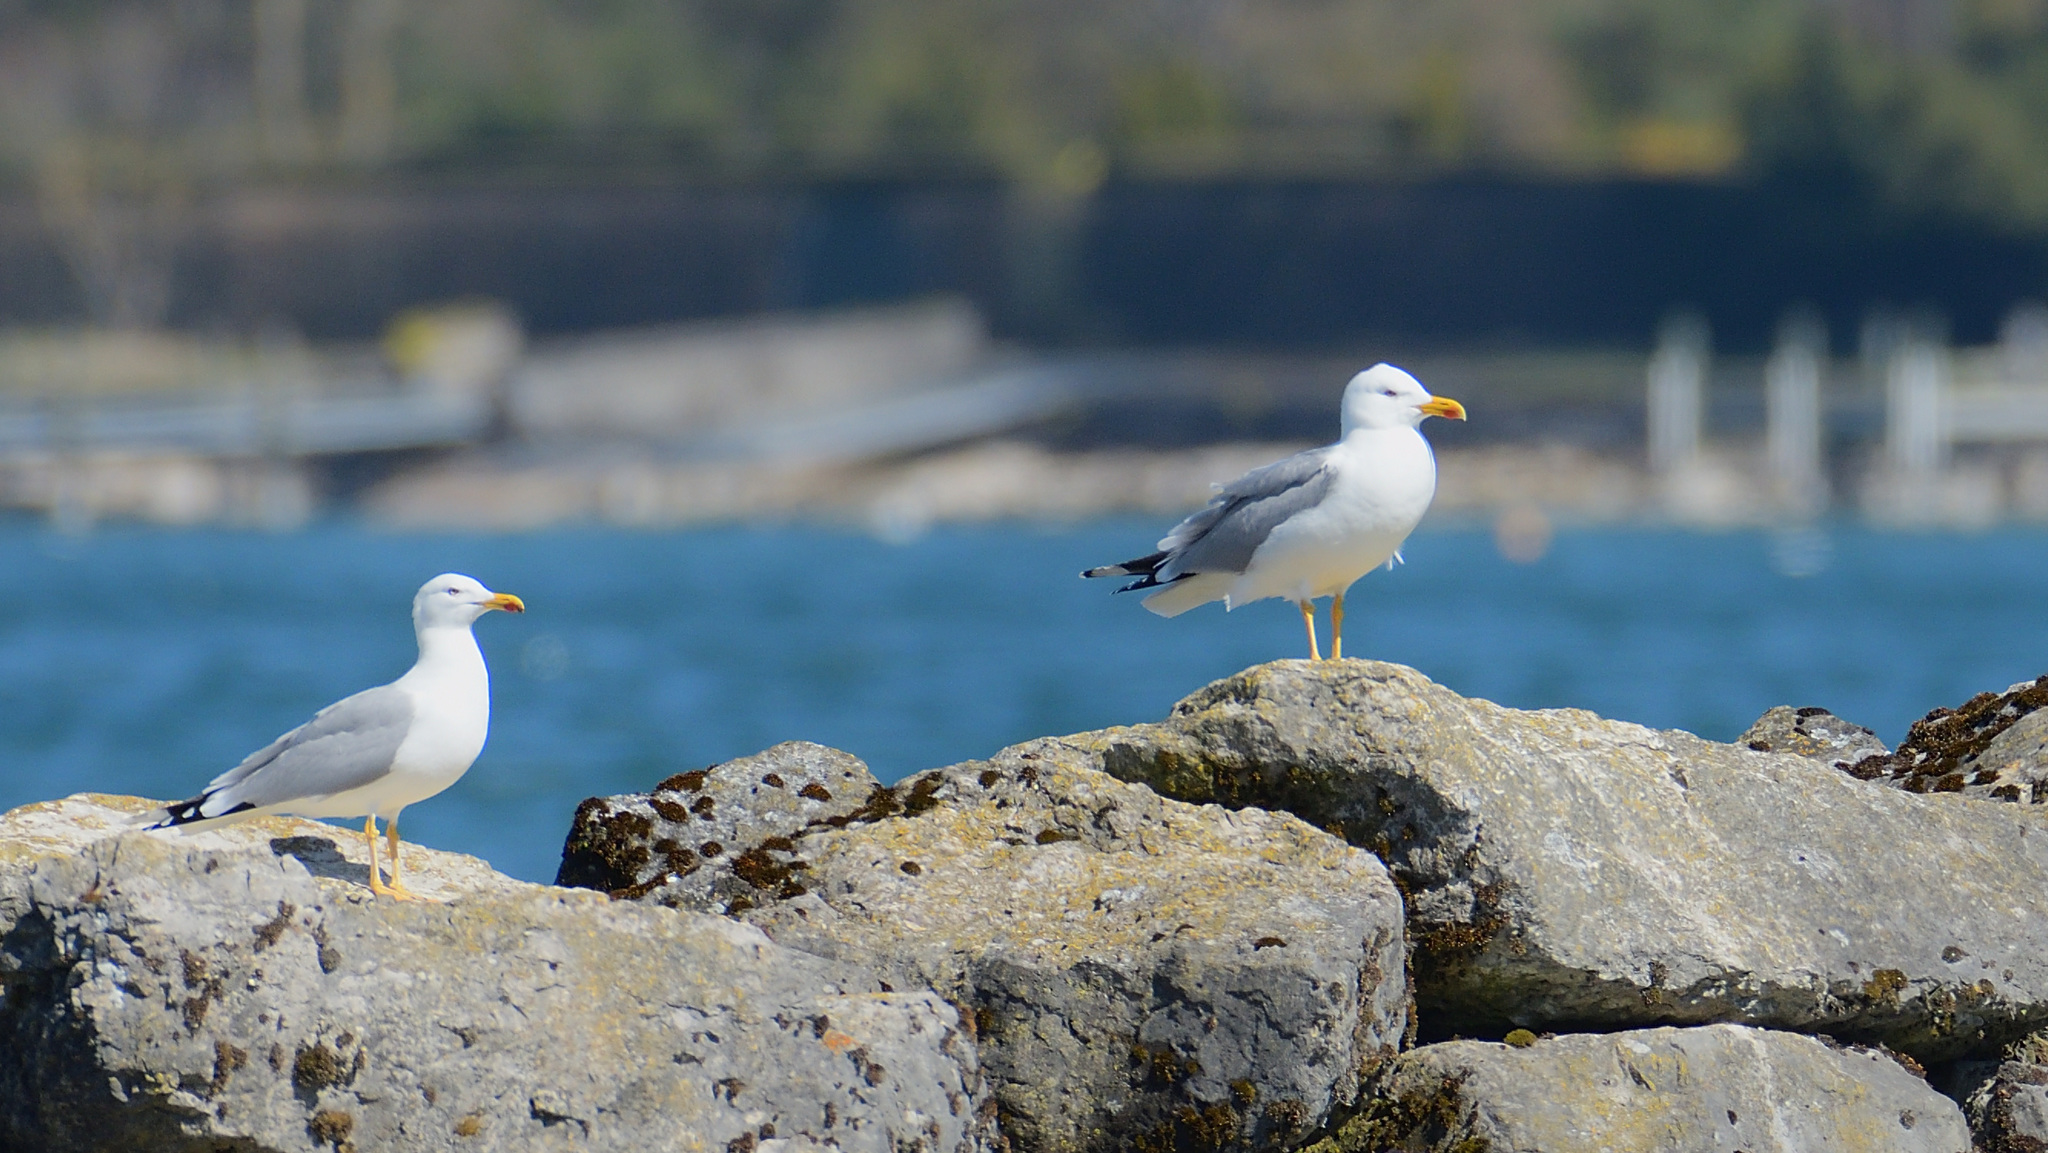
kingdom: Animalia
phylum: Chordata
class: Aves
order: Charadriiformes
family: Laridae
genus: Larus
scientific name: Larus michahellis
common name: Yellow-legged gull
